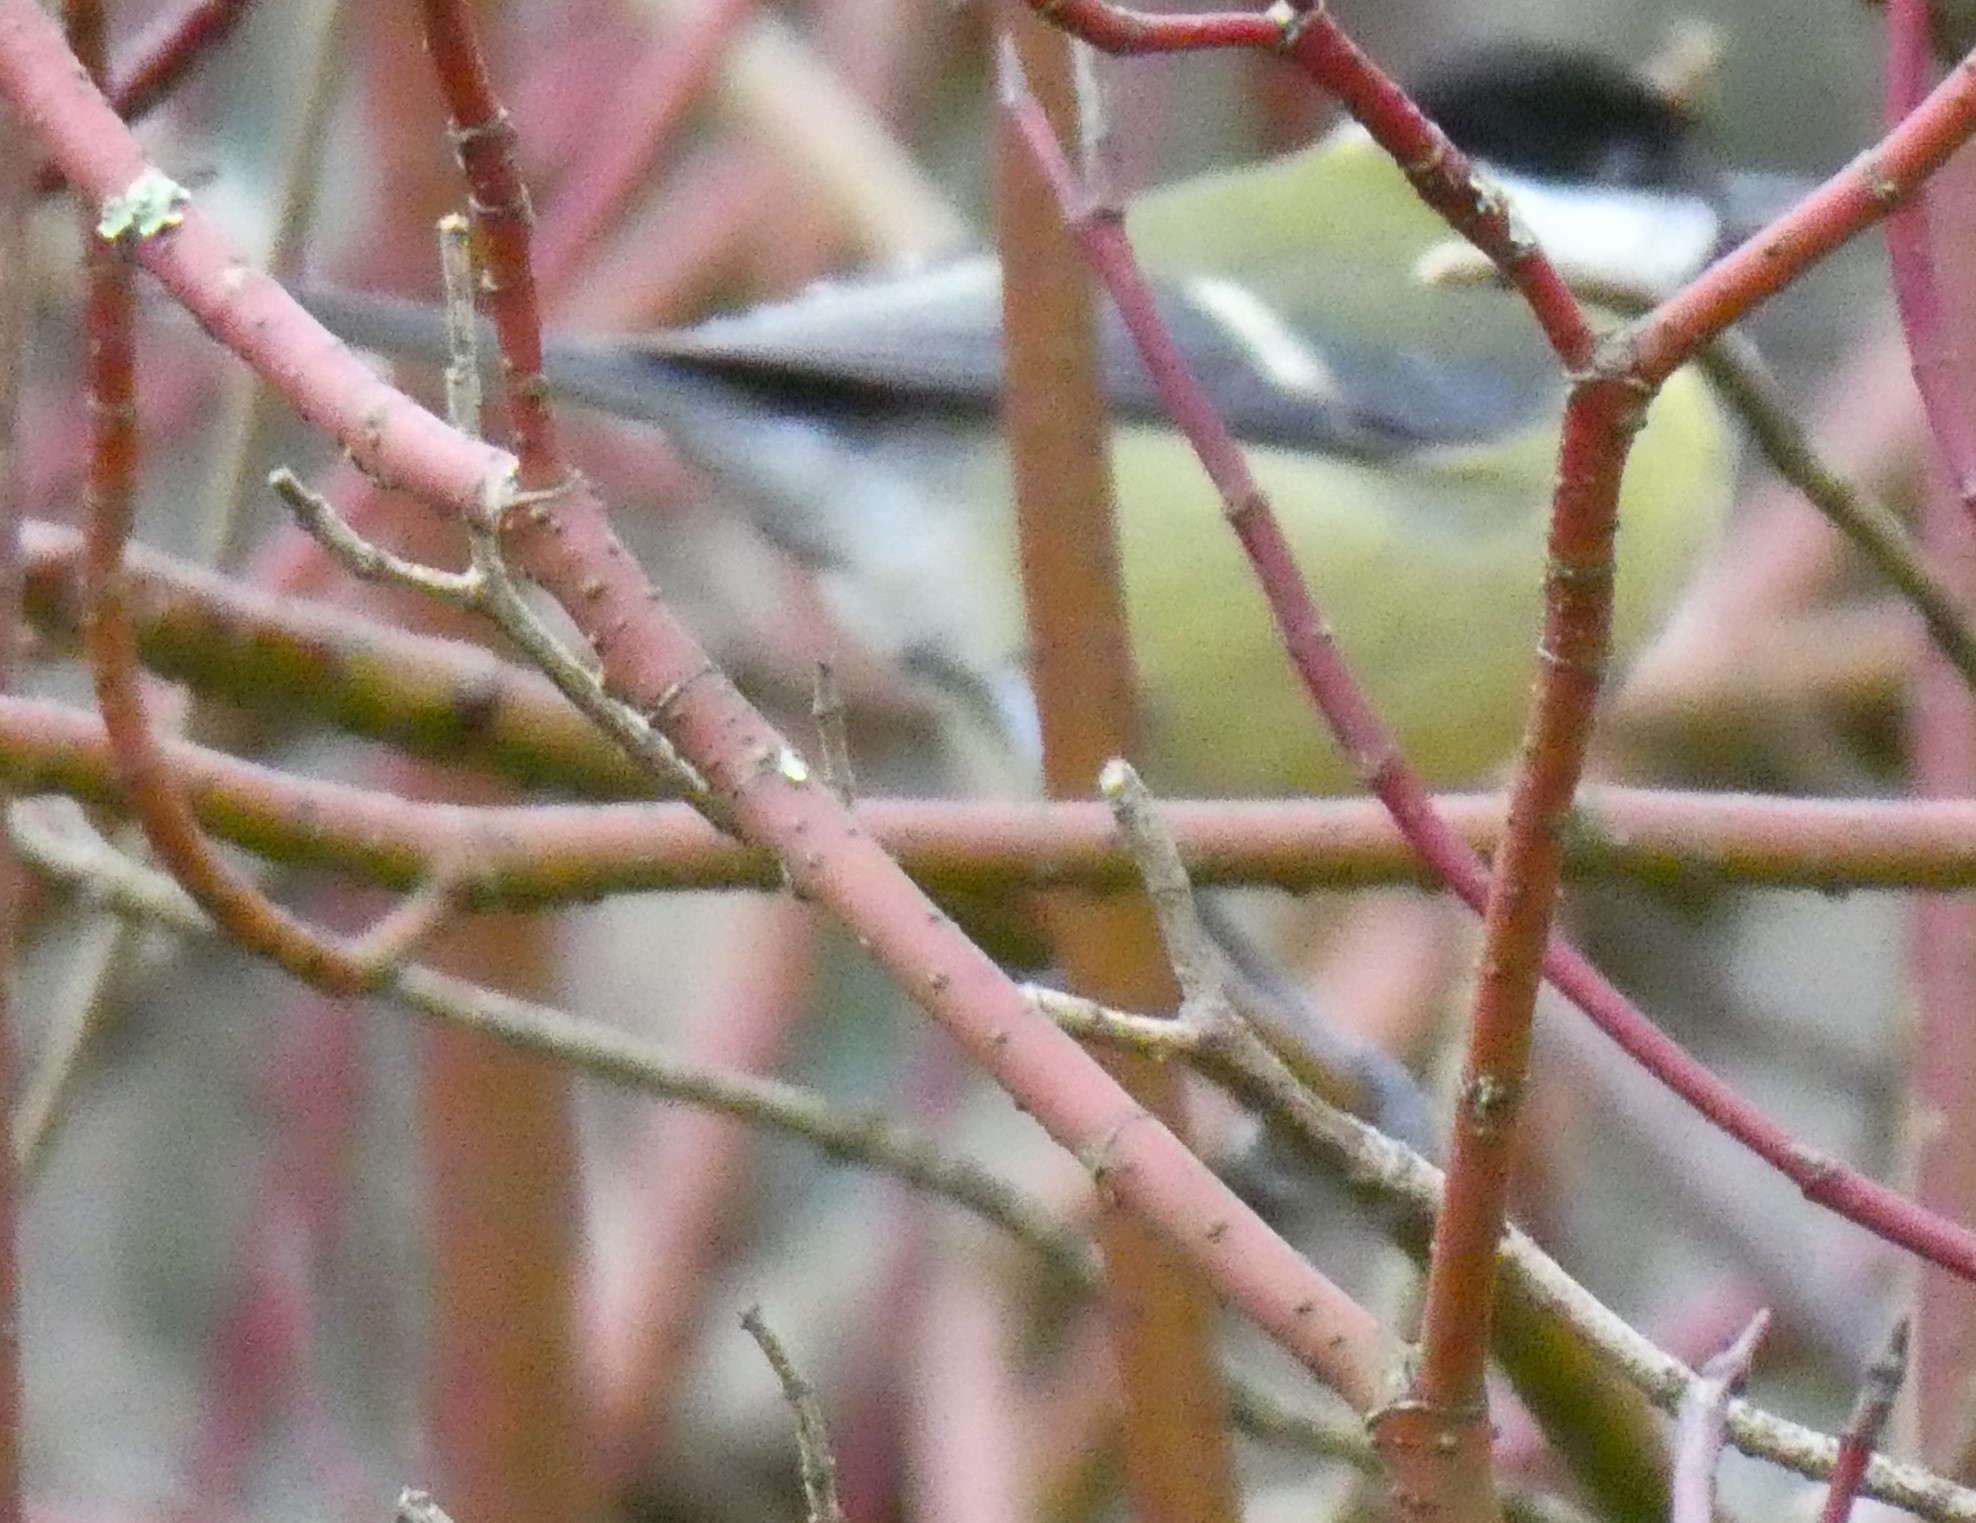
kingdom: Animalia
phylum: Chordata
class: Aves
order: Passeriformes
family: Paridae
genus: Parus
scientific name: Parus major
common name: Great tit
